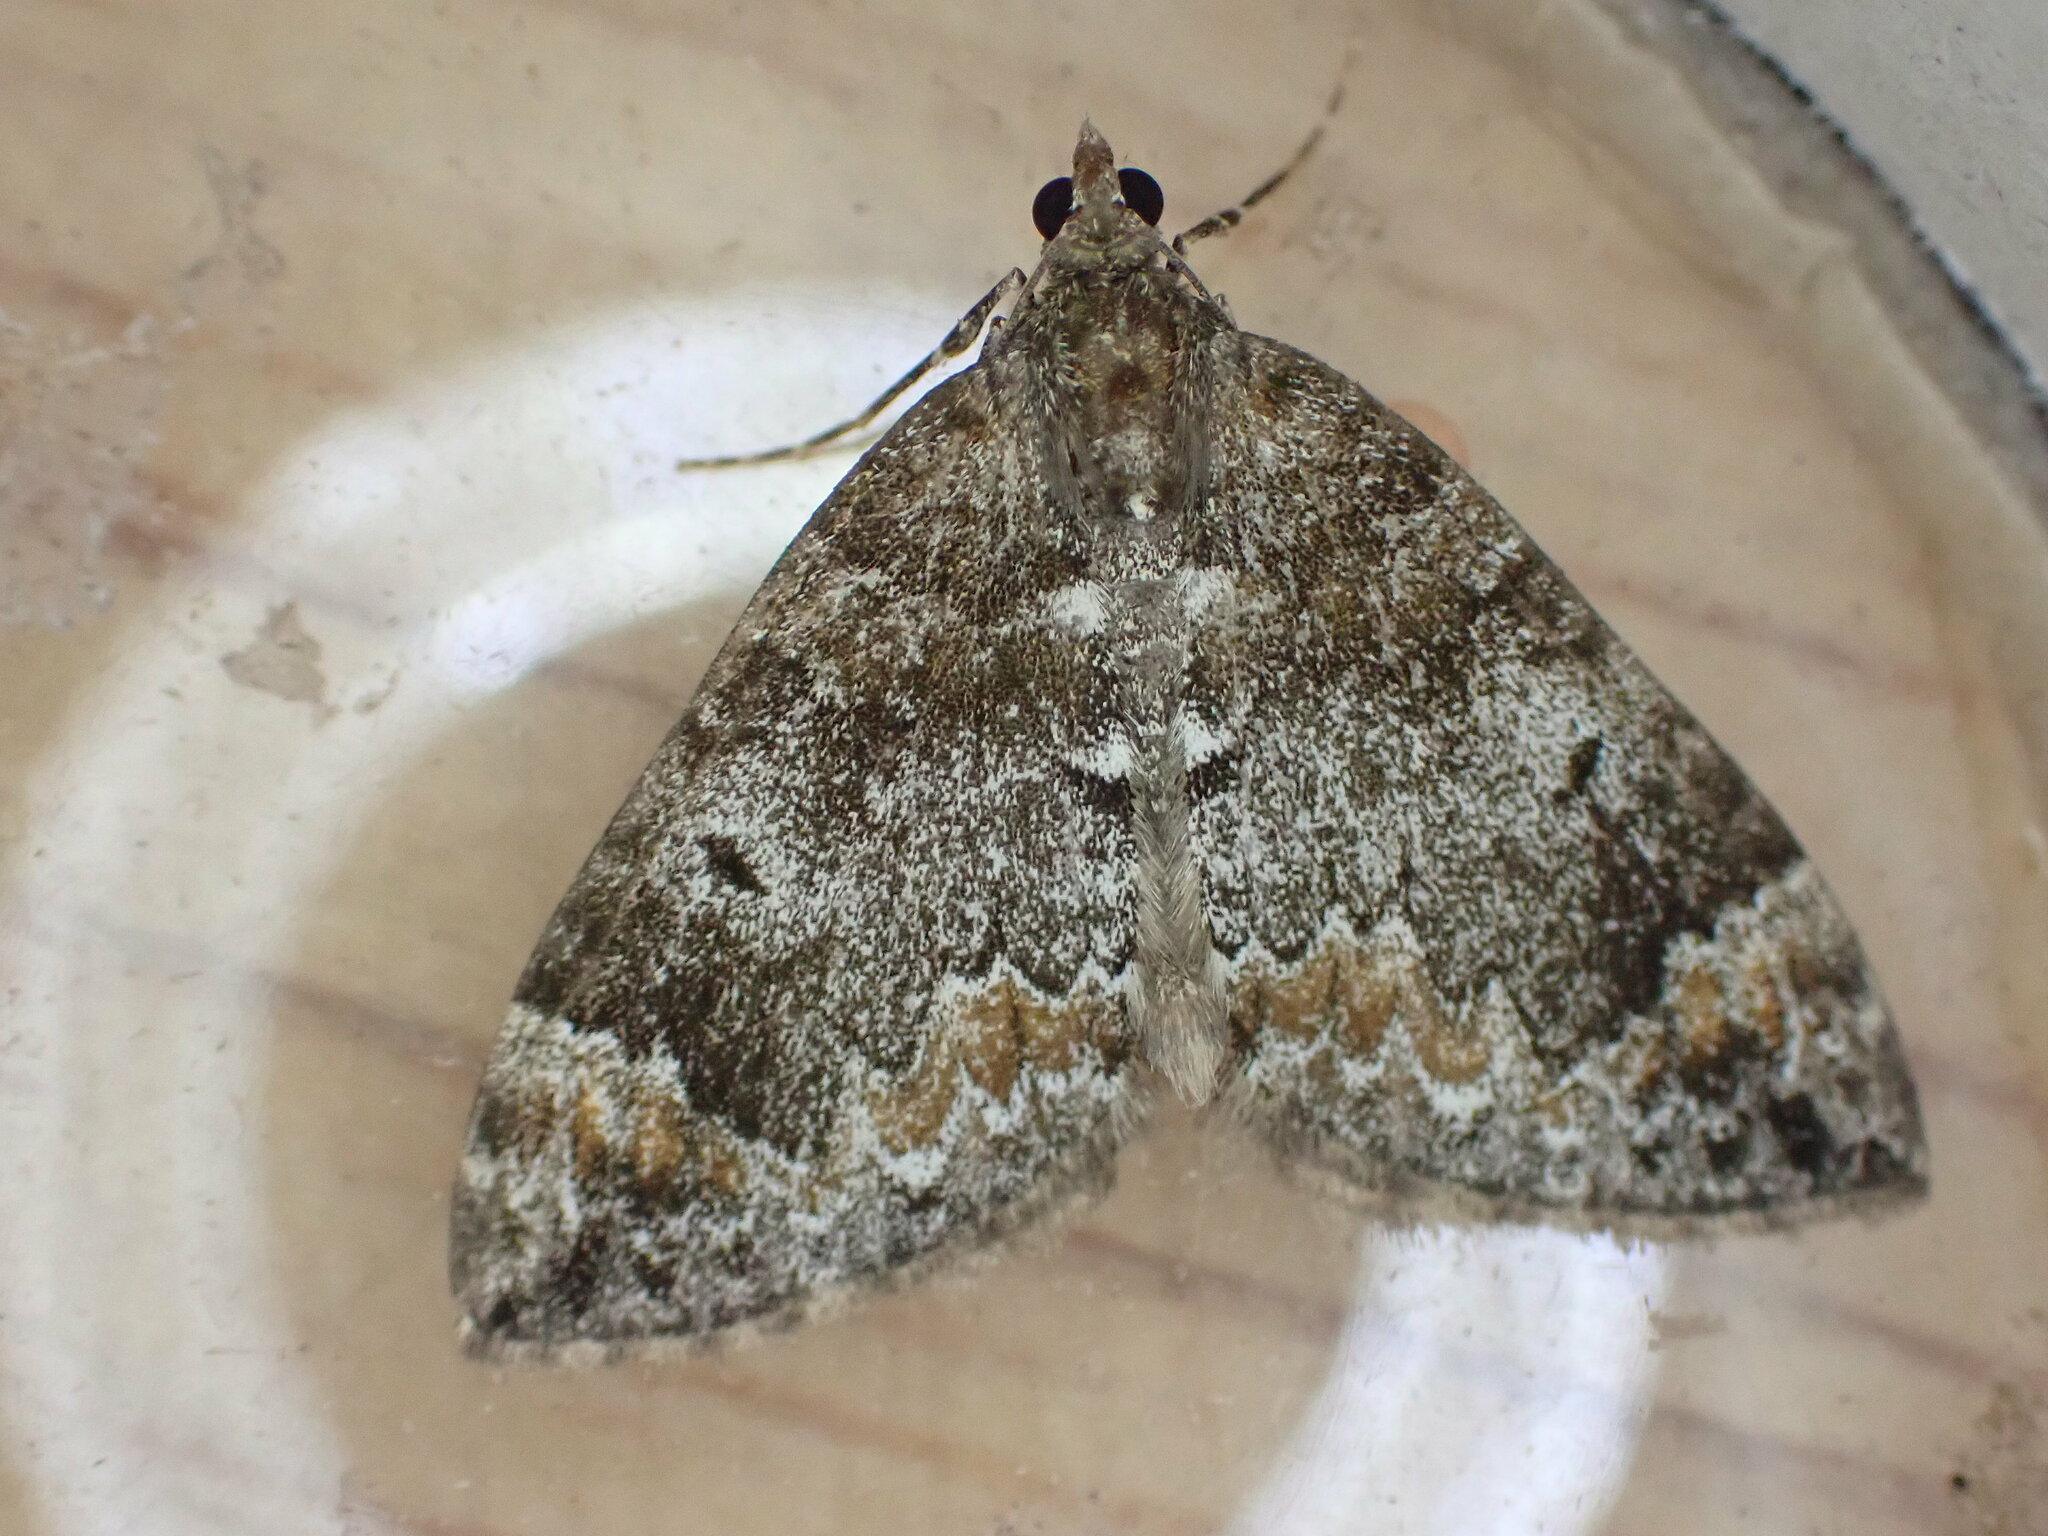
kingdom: Animalia
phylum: Arthropoda
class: Insecta
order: Lepidoptera
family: Geometridae
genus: Dysstroma
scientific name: Dysstroma truncata
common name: Common marbled carpet
